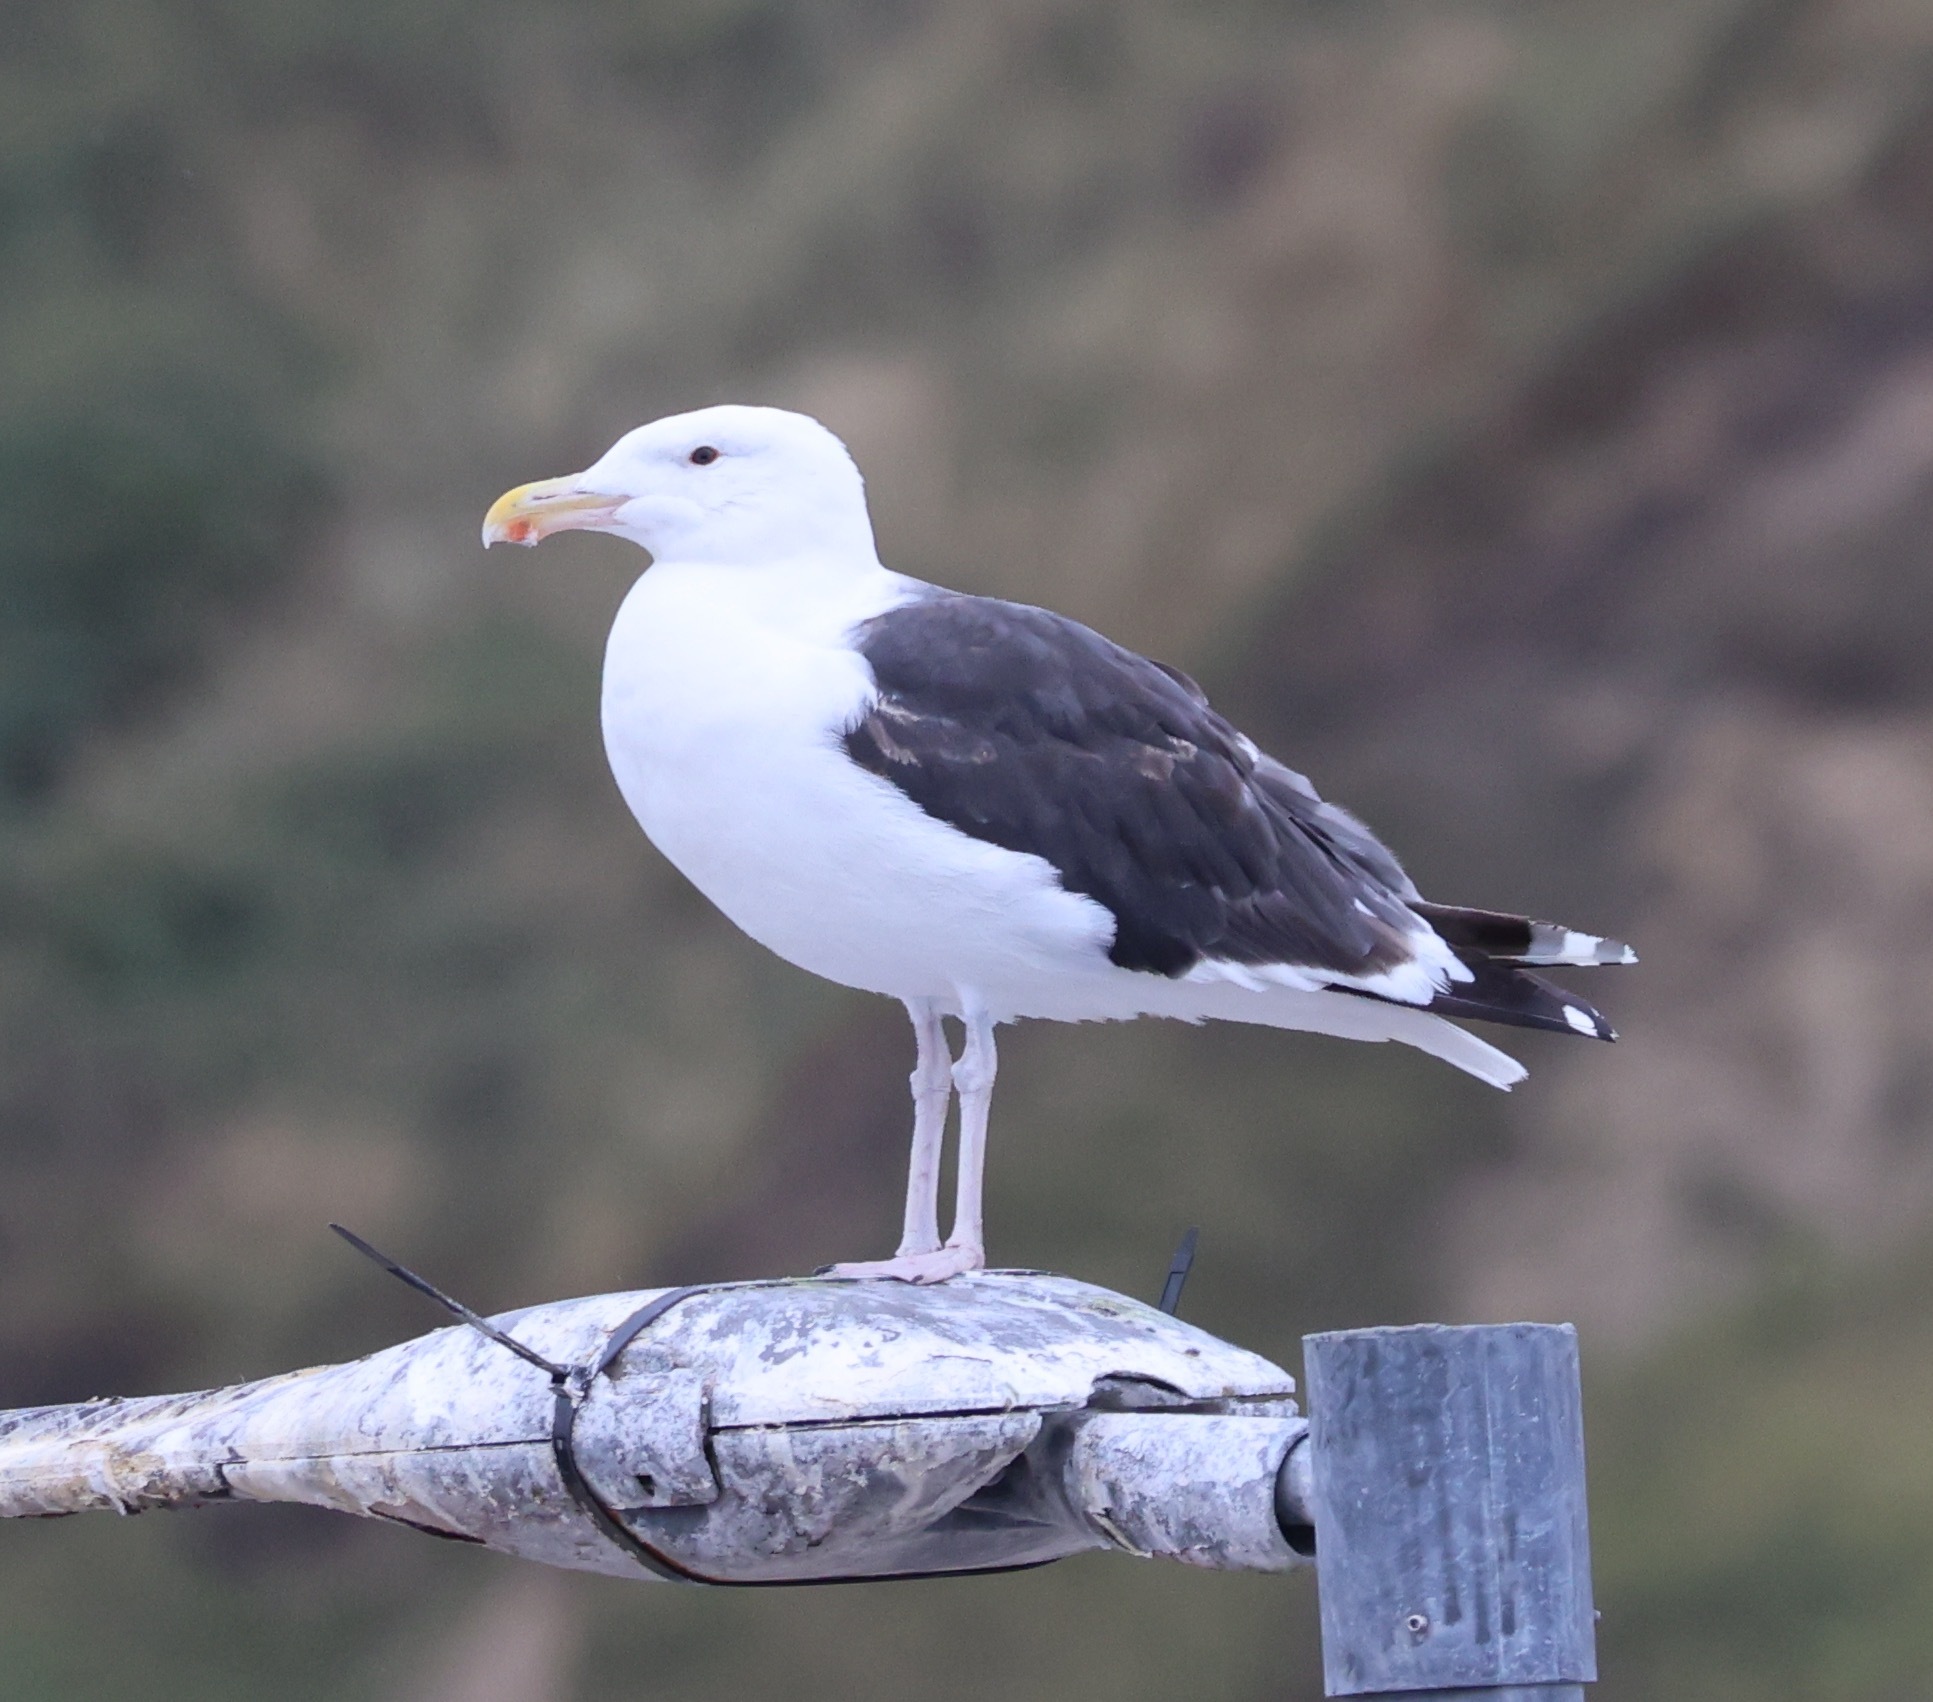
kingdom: Animalia
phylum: Chordata
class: Aves
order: Charadriiformes
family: Laridae
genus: Larus
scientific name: Larus marinus
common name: Great black-backed gull
